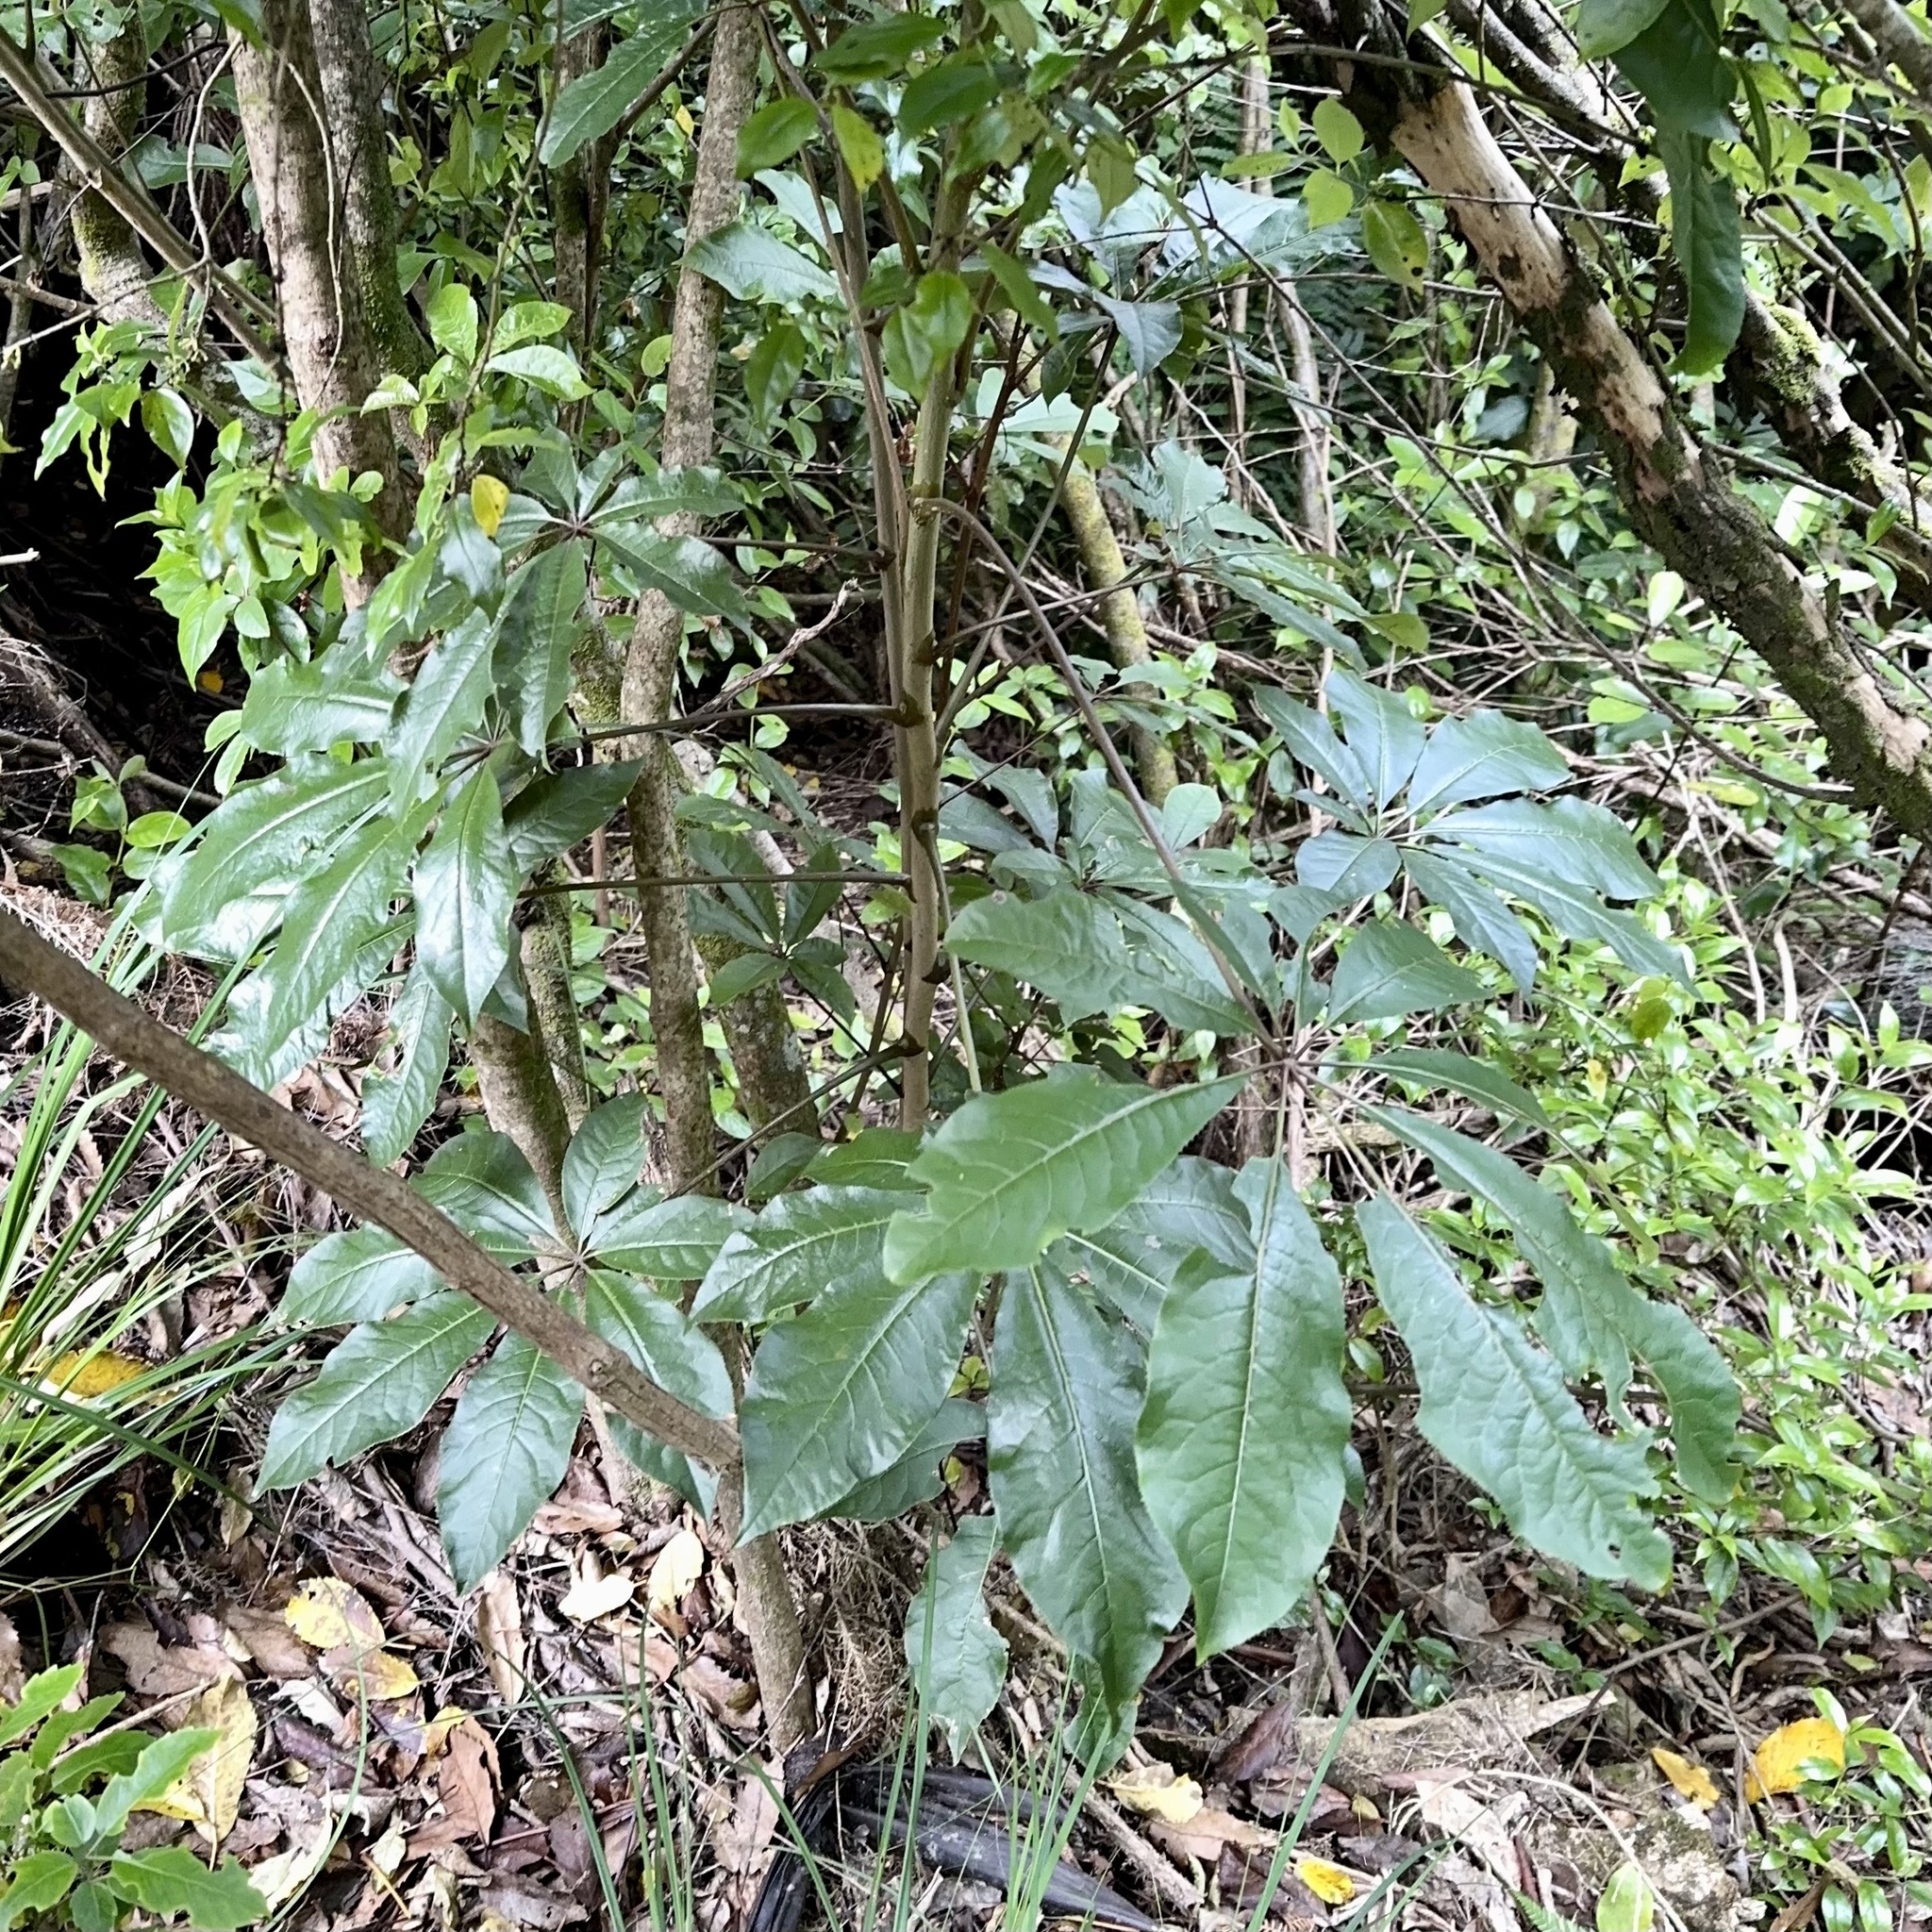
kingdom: Plantae
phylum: Tracheophyta
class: Magnoliopsida
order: Apiales
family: Araliaceae
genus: Schefflera
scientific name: Schefflera digitata
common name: Pate
